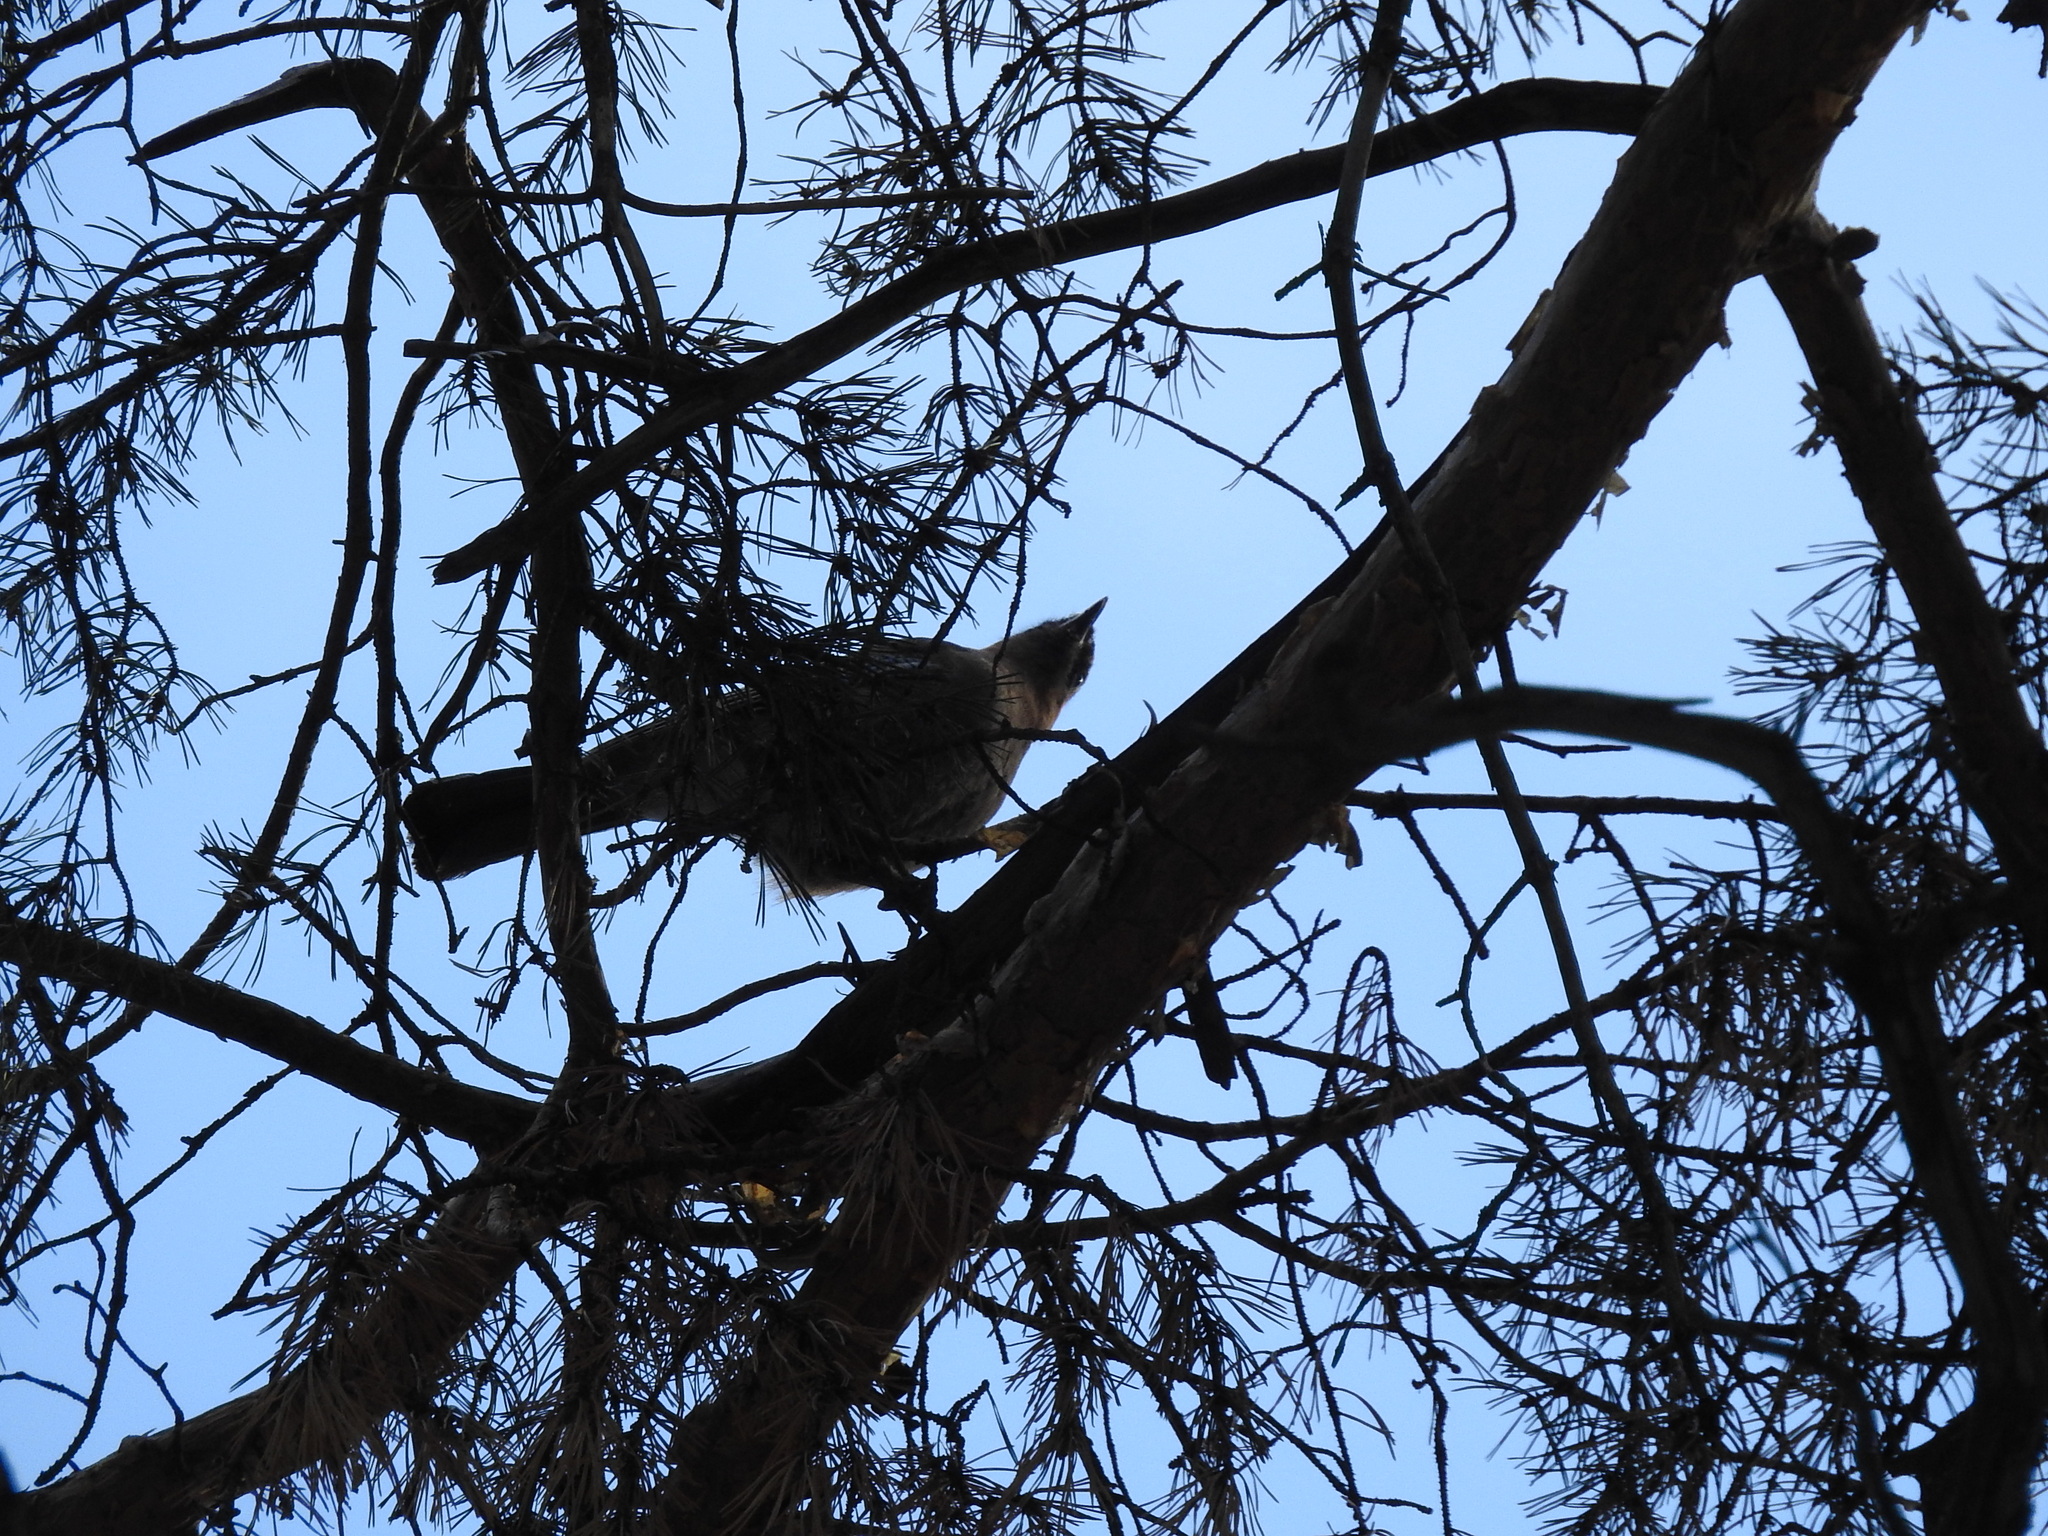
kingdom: Animalia
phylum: Chordata
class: Aves
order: Passeriformes
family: Corvidae
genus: Garrulus
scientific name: Garrulus glandarius
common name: Eurasian jay
